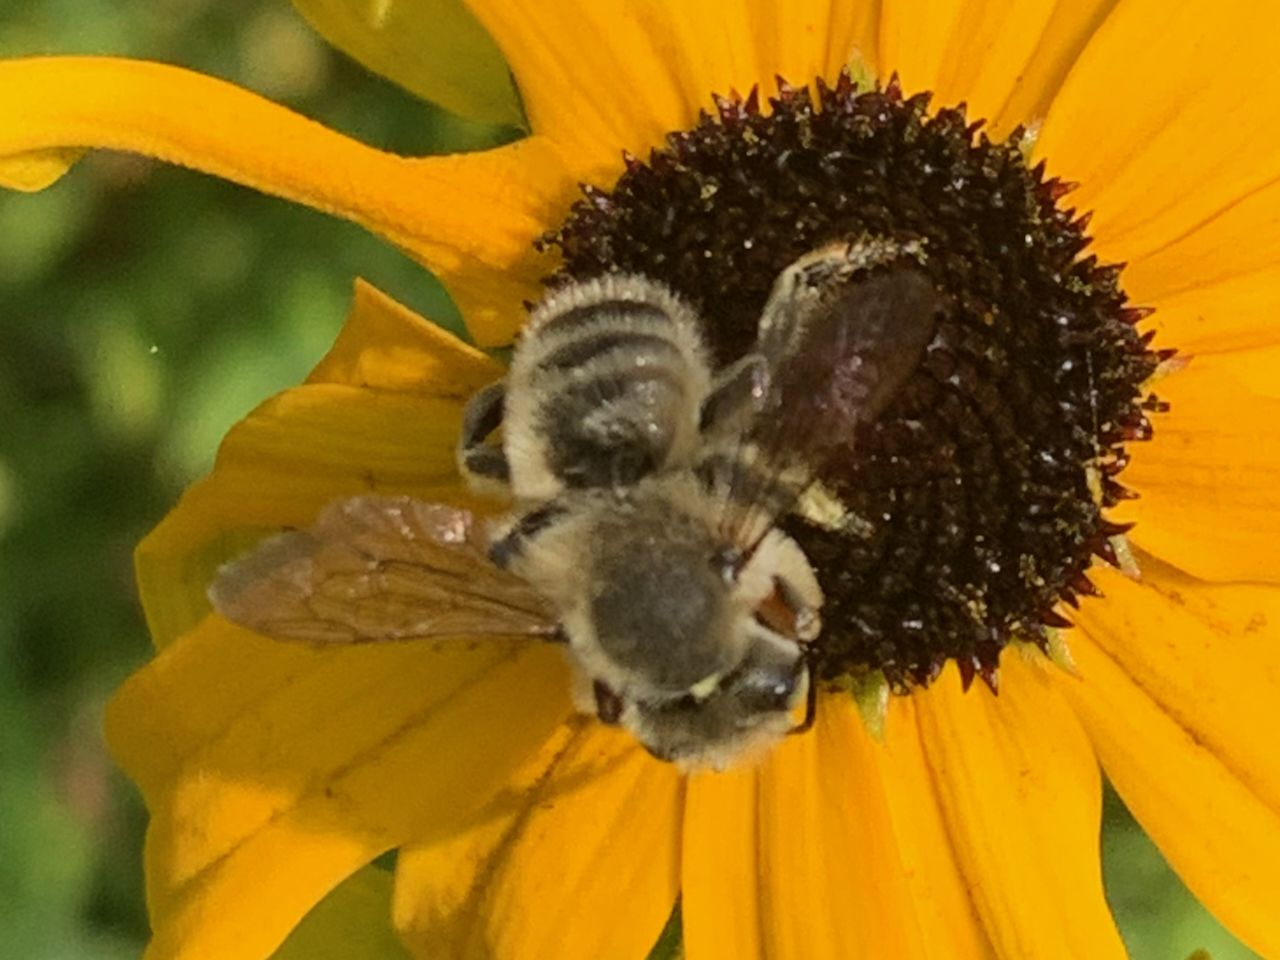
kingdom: Animalia
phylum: Arthropoda
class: Insecta
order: Hymenoptera
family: Megachilidae
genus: Megachile
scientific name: Megachile perihirta
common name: Western leafcutter
